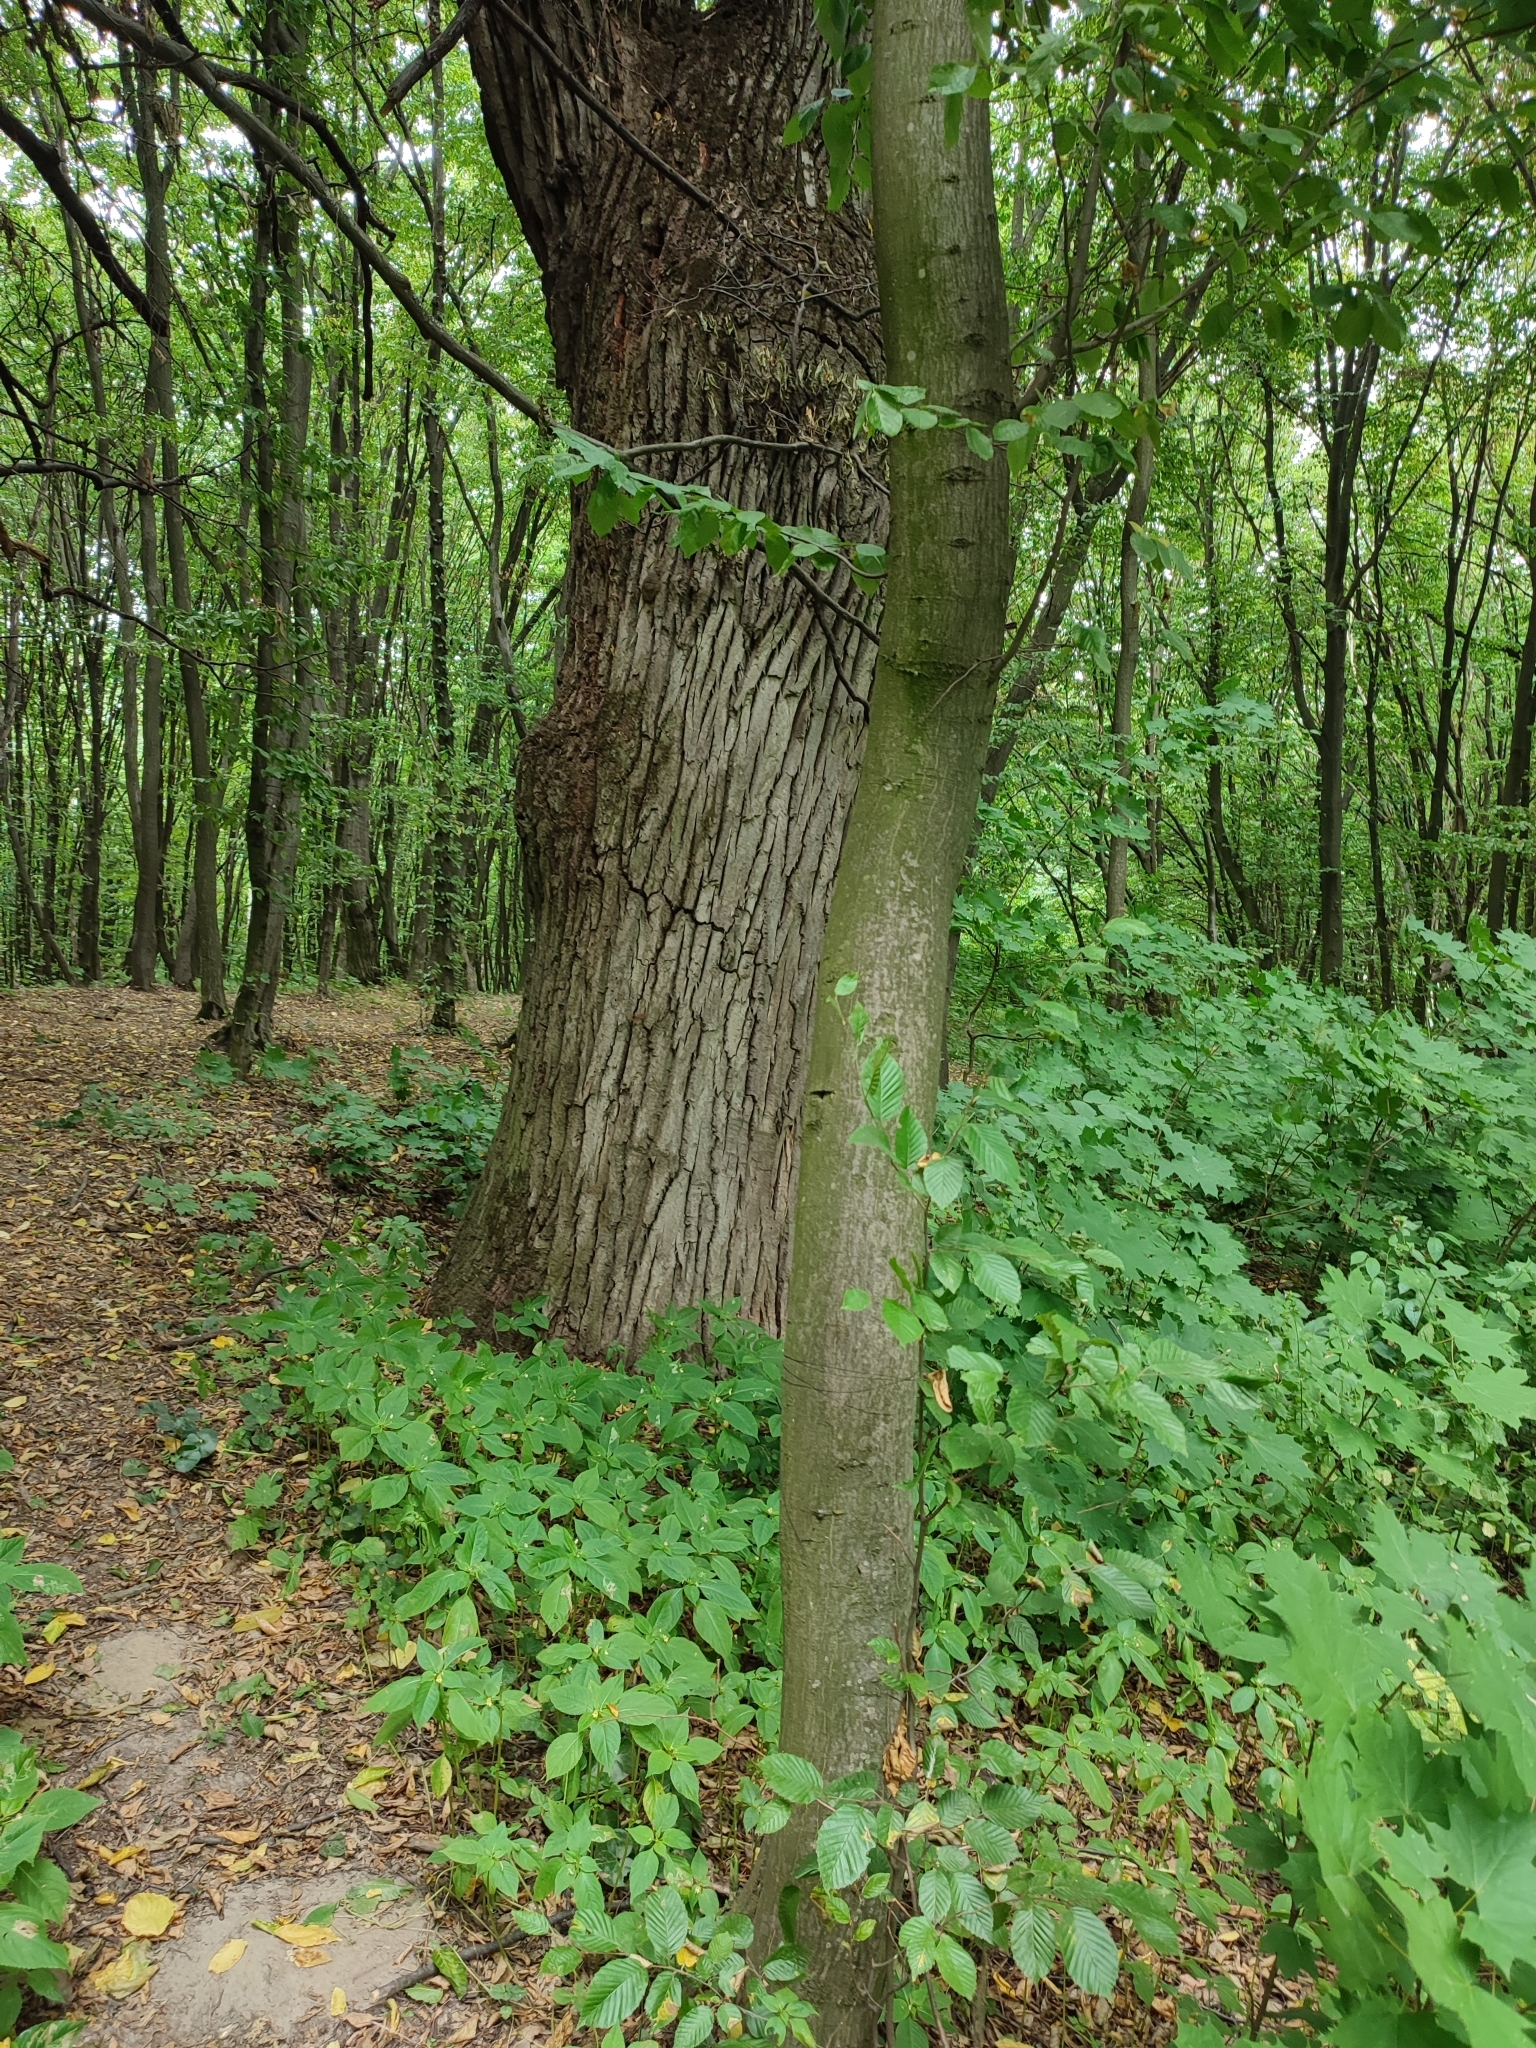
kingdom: Plantae
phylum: Tracheophyta
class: Magnoliopsida
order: Fagales
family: Betulaceae
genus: Carpinus
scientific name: Carpinus betulus
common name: Hornbeam
